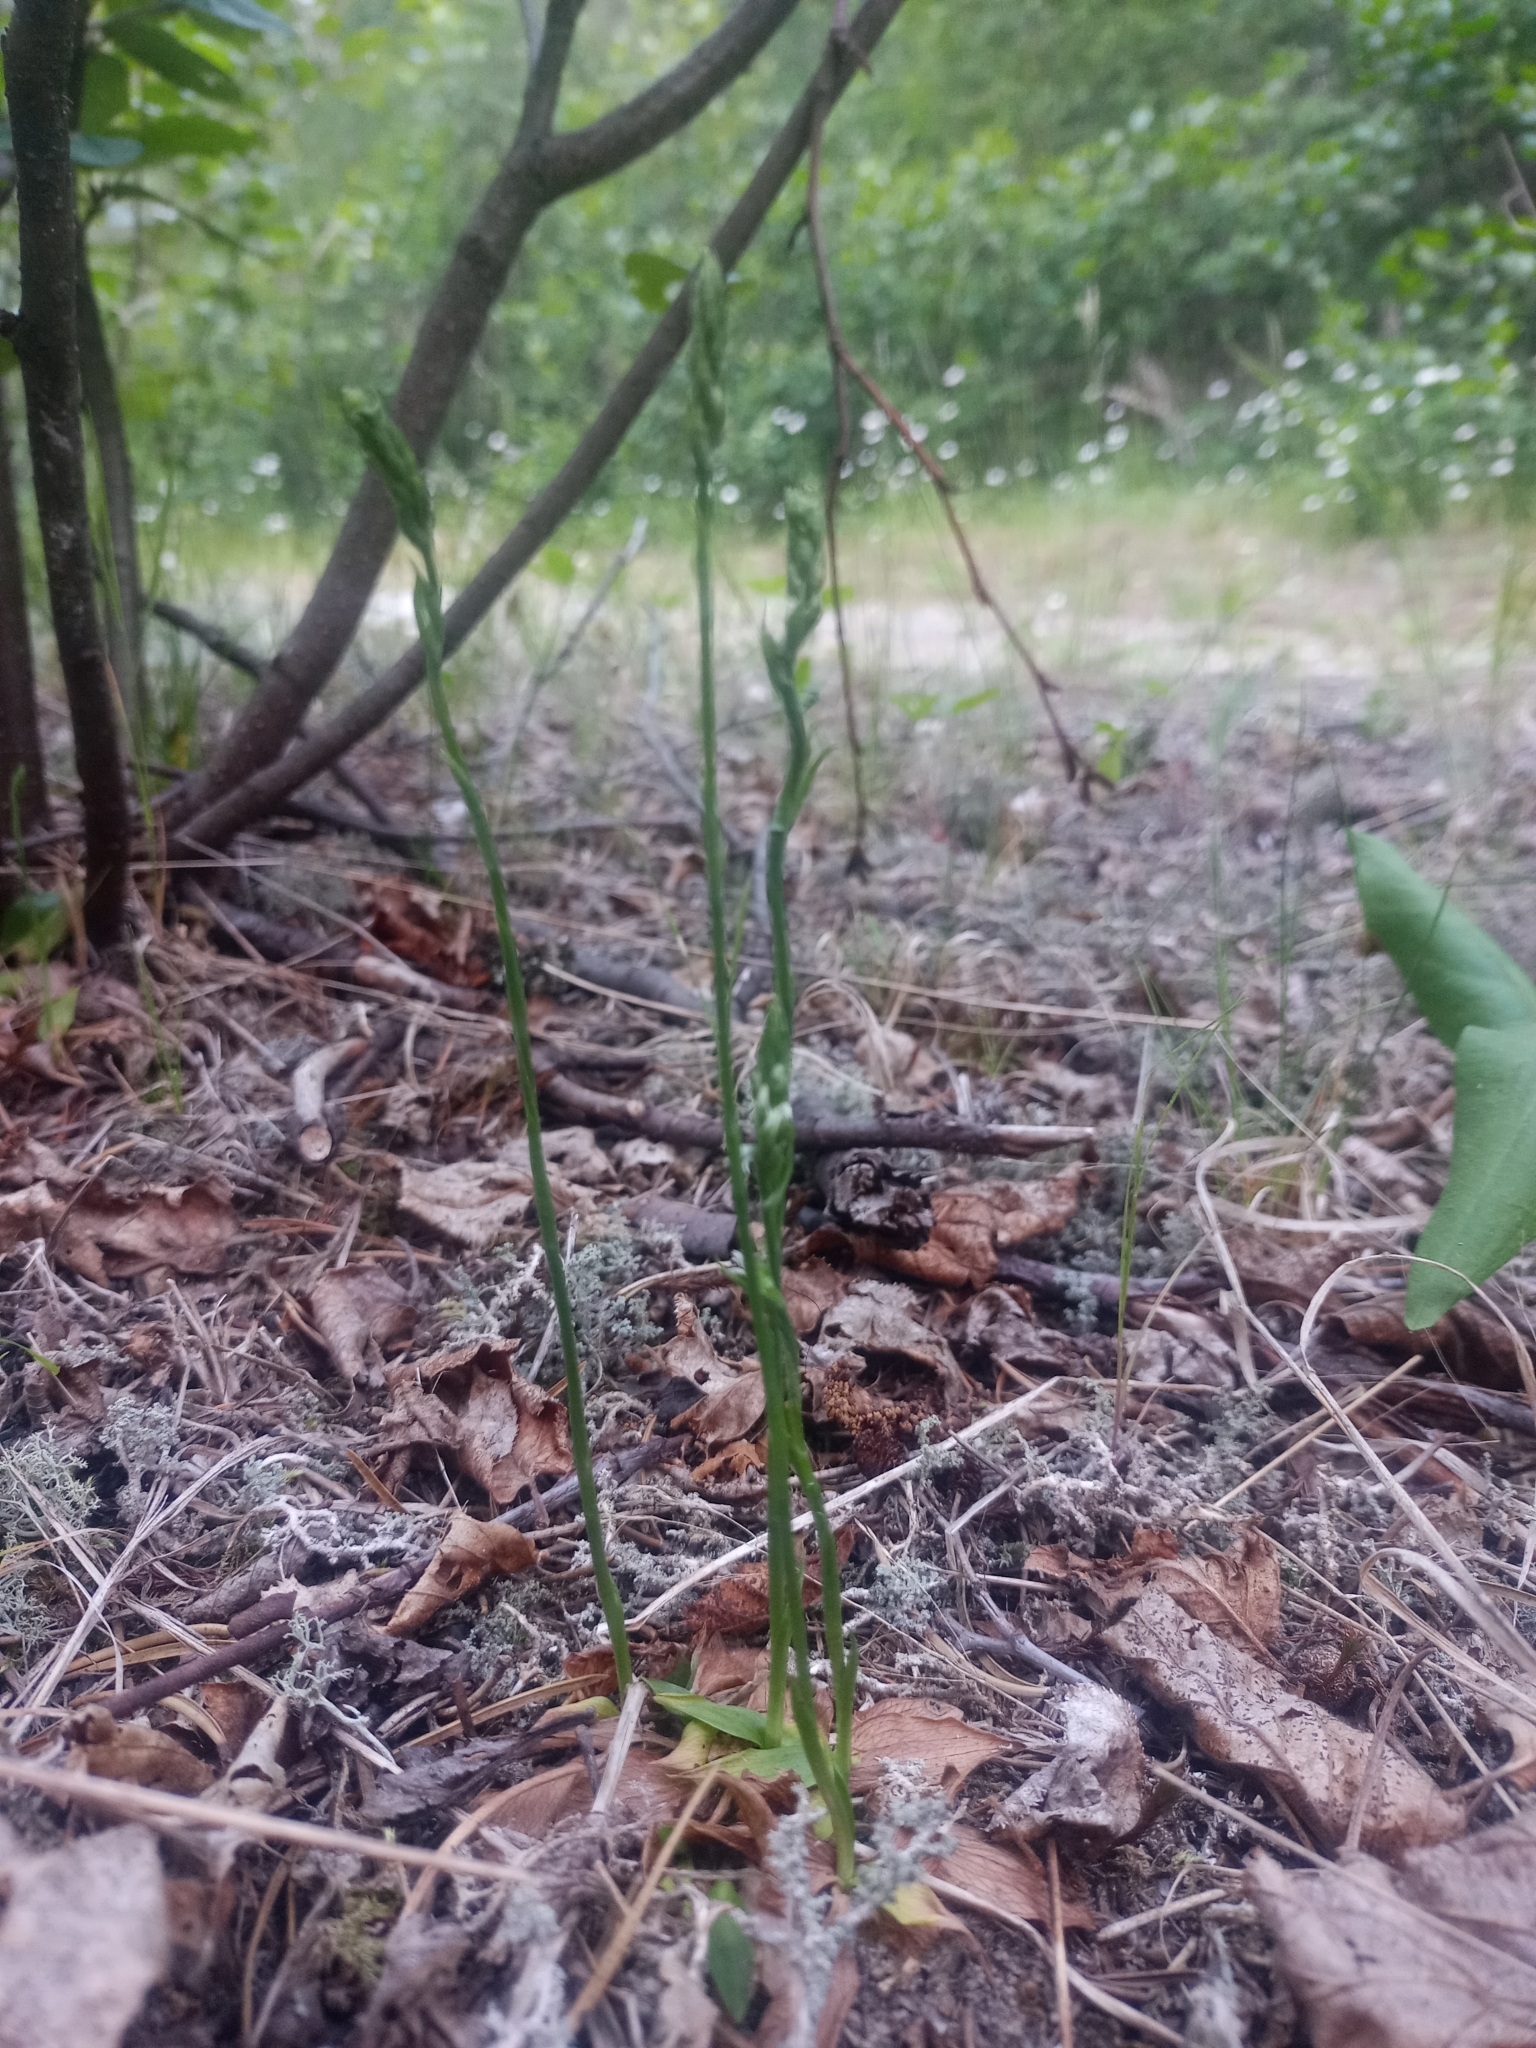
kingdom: Plantae
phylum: Tracheophyta
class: Liliopsida
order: Asparagales
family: Orchidaceae
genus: Spiranthes
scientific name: Spiranthes lacera
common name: Northern slender ladies'-tresses
